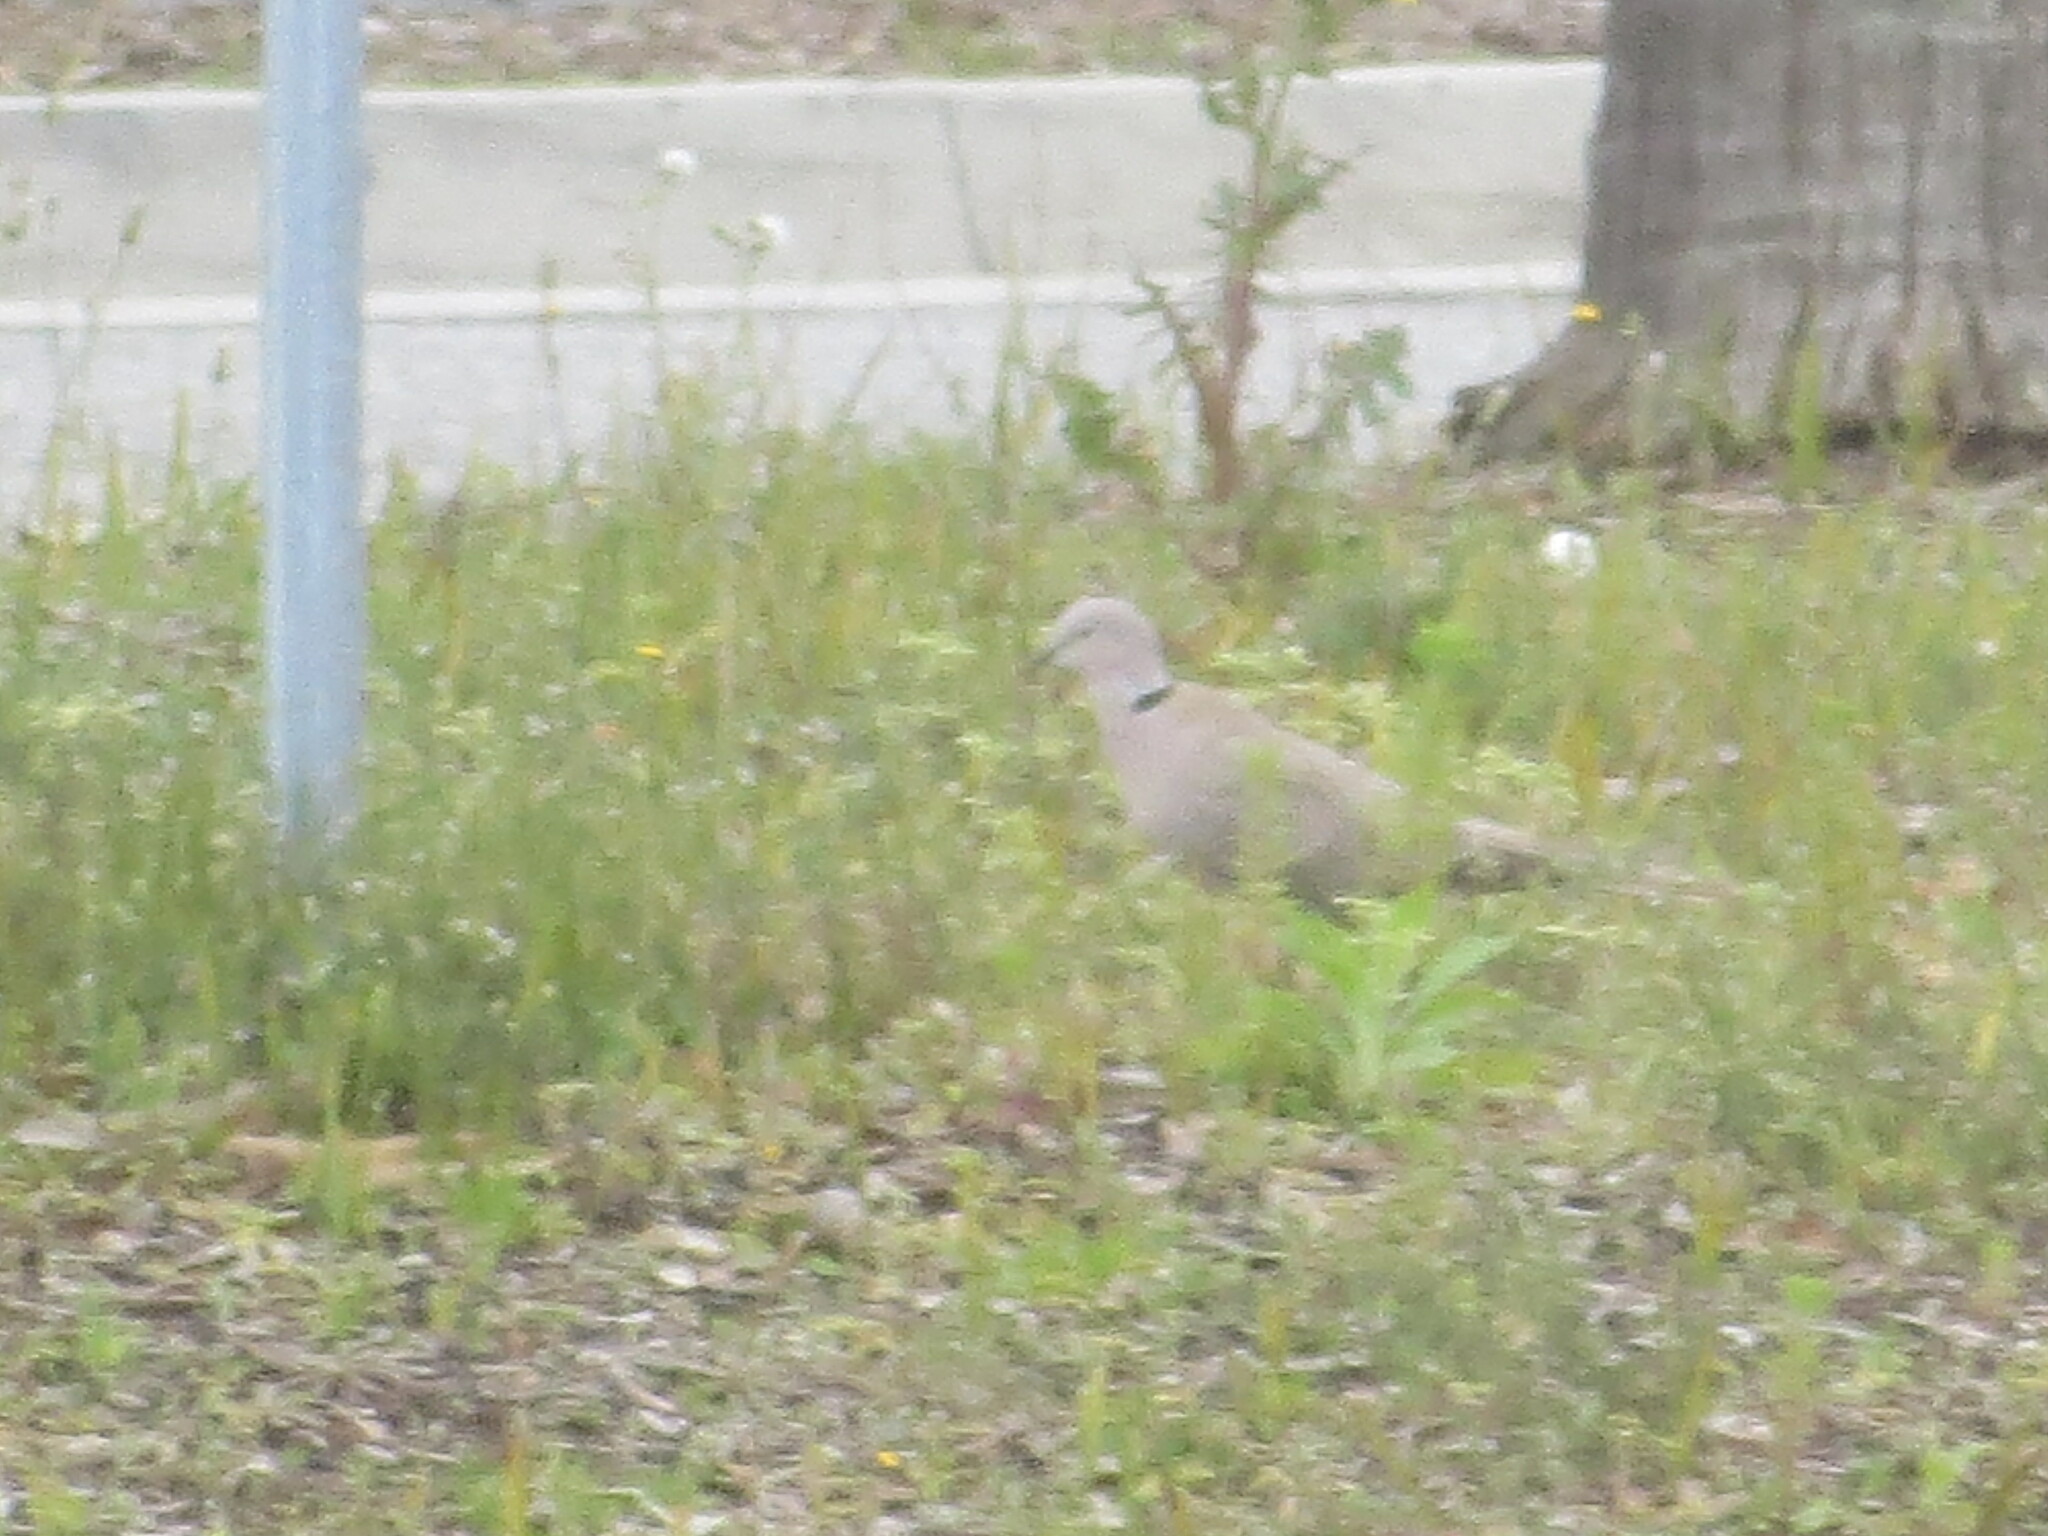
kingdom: Animalia
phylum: Chordata
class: Aves
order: Columbiformes
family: Columbidae
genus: Streptopelia
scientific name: Streptopelia decaocto
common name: Eurasian collared dove
